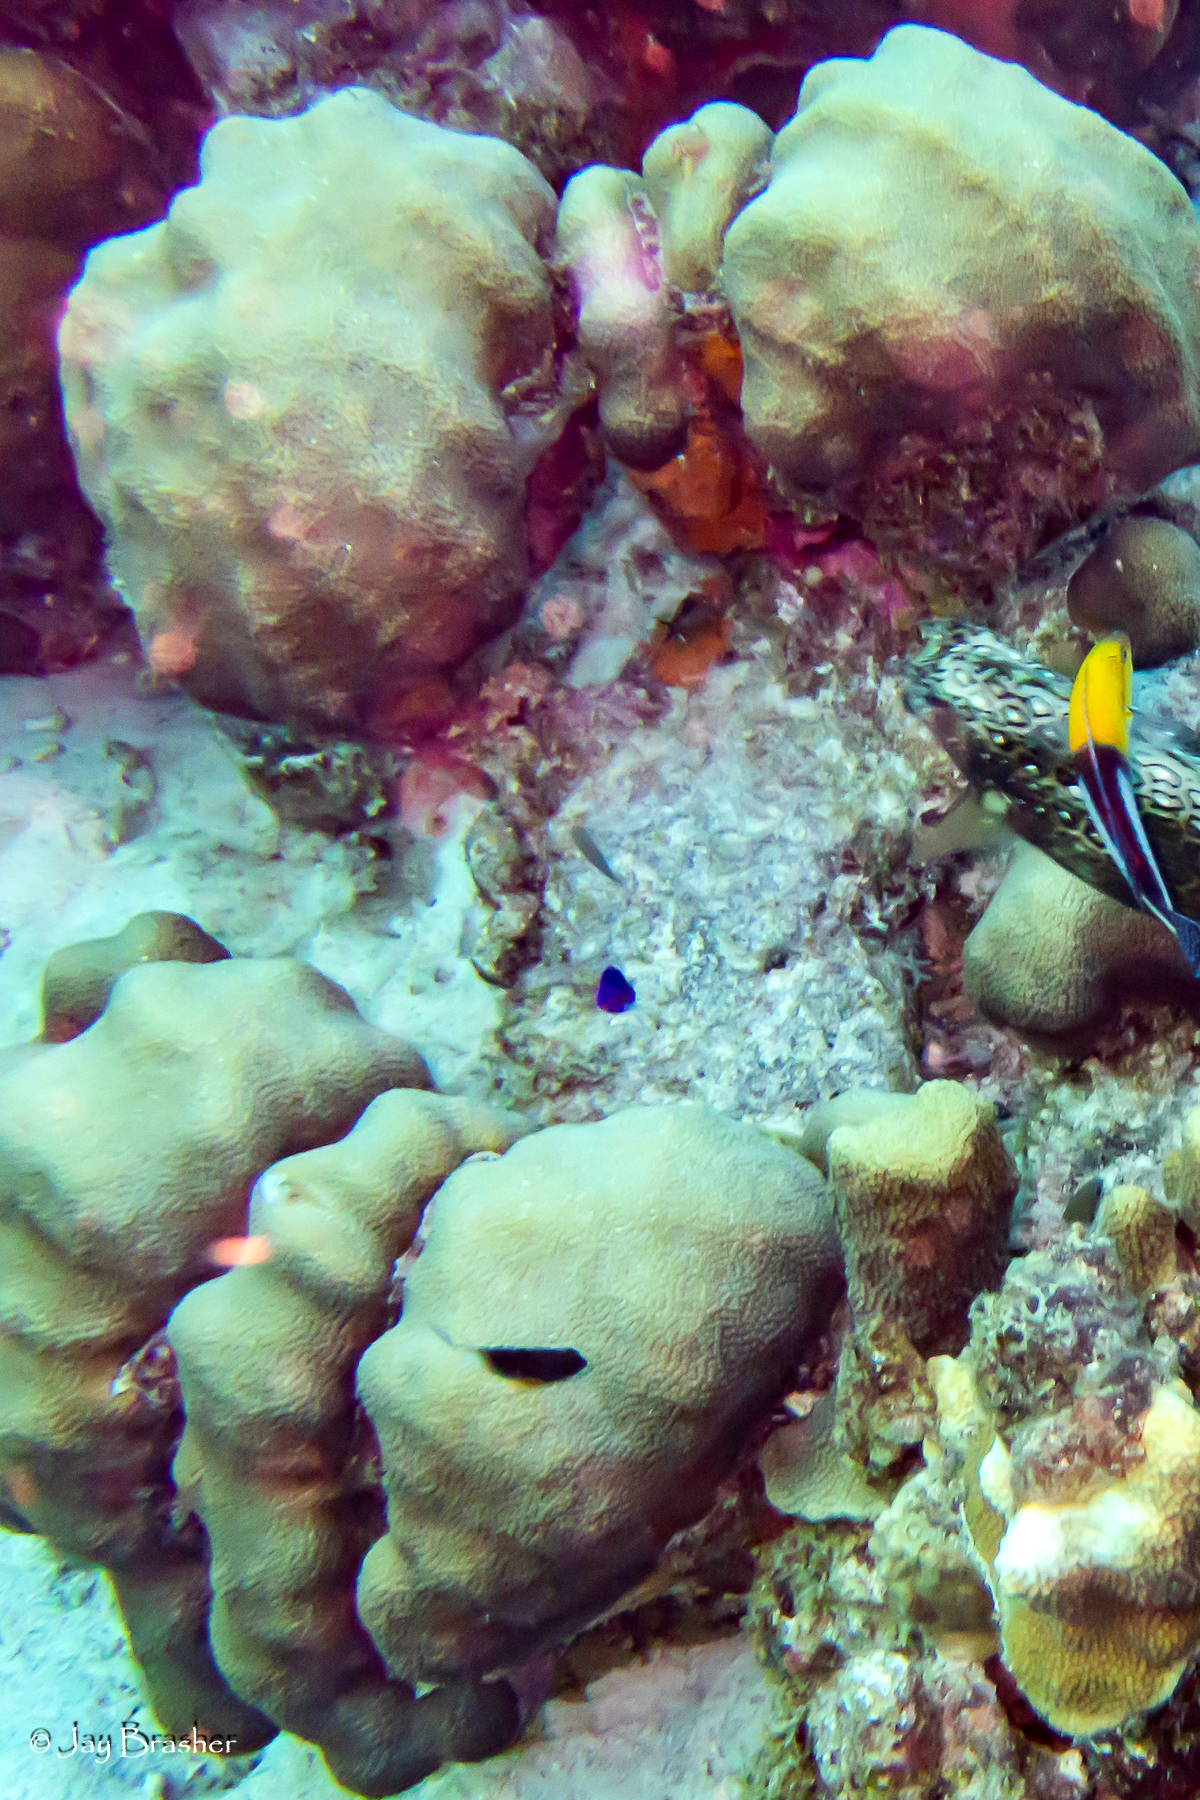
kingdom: Animalia
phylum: Cnidaria
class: Anthozoa
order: Scleractinia
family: Merulinidae
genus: Orbicella
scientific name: Orbicella faveolata
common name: Mountainous star coral
